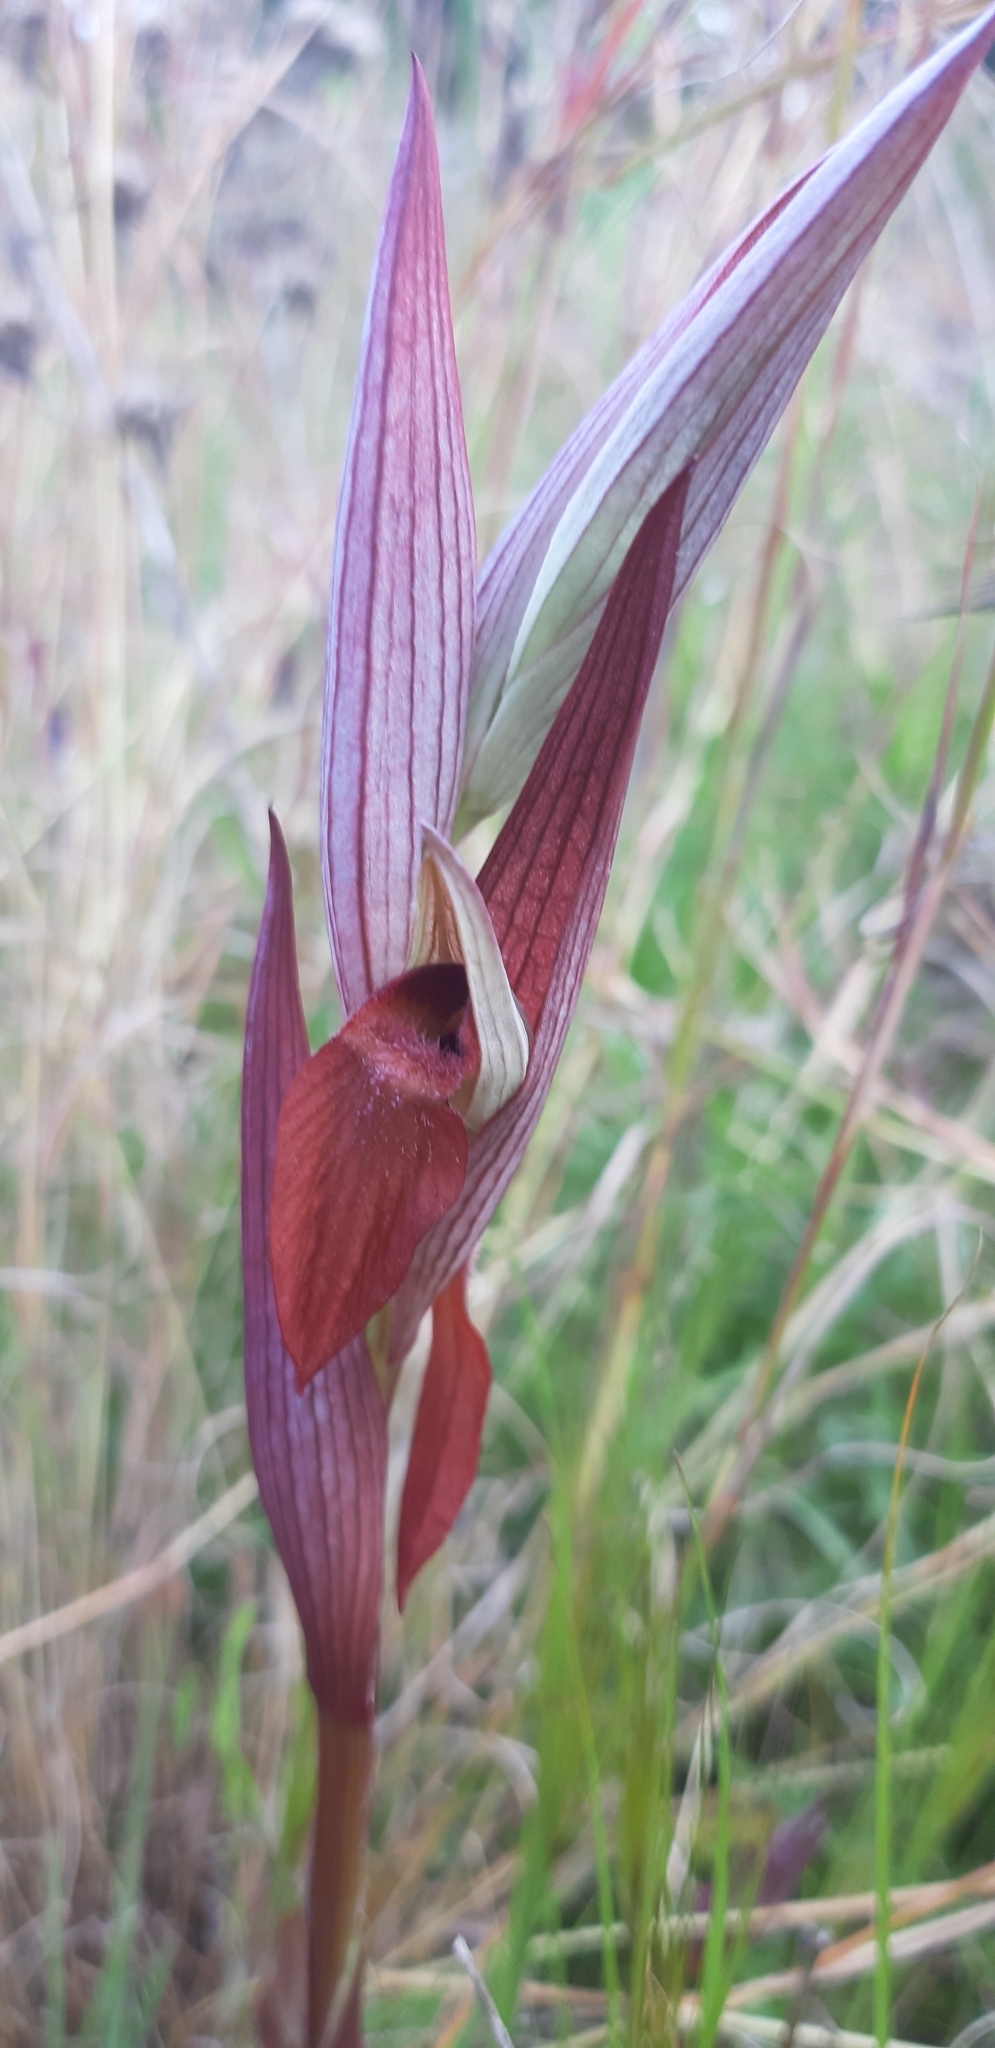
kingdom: Plantae
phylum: Tracheophyta
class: Liliopsida
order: Asparagales
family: Orchidaceae
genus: Serapias
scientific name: Serapias vomeracea
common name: Long-lipped tongue-orchid
